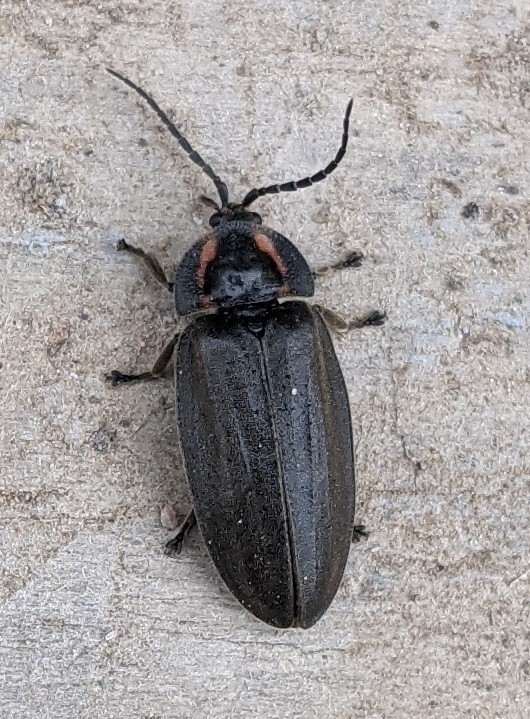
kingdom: Animalia
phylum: Arthropoda
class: Insecta
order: Coleoptera
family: Lampyridae
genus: Photinus
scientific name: Photinus corrusca
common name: Winter firefly
